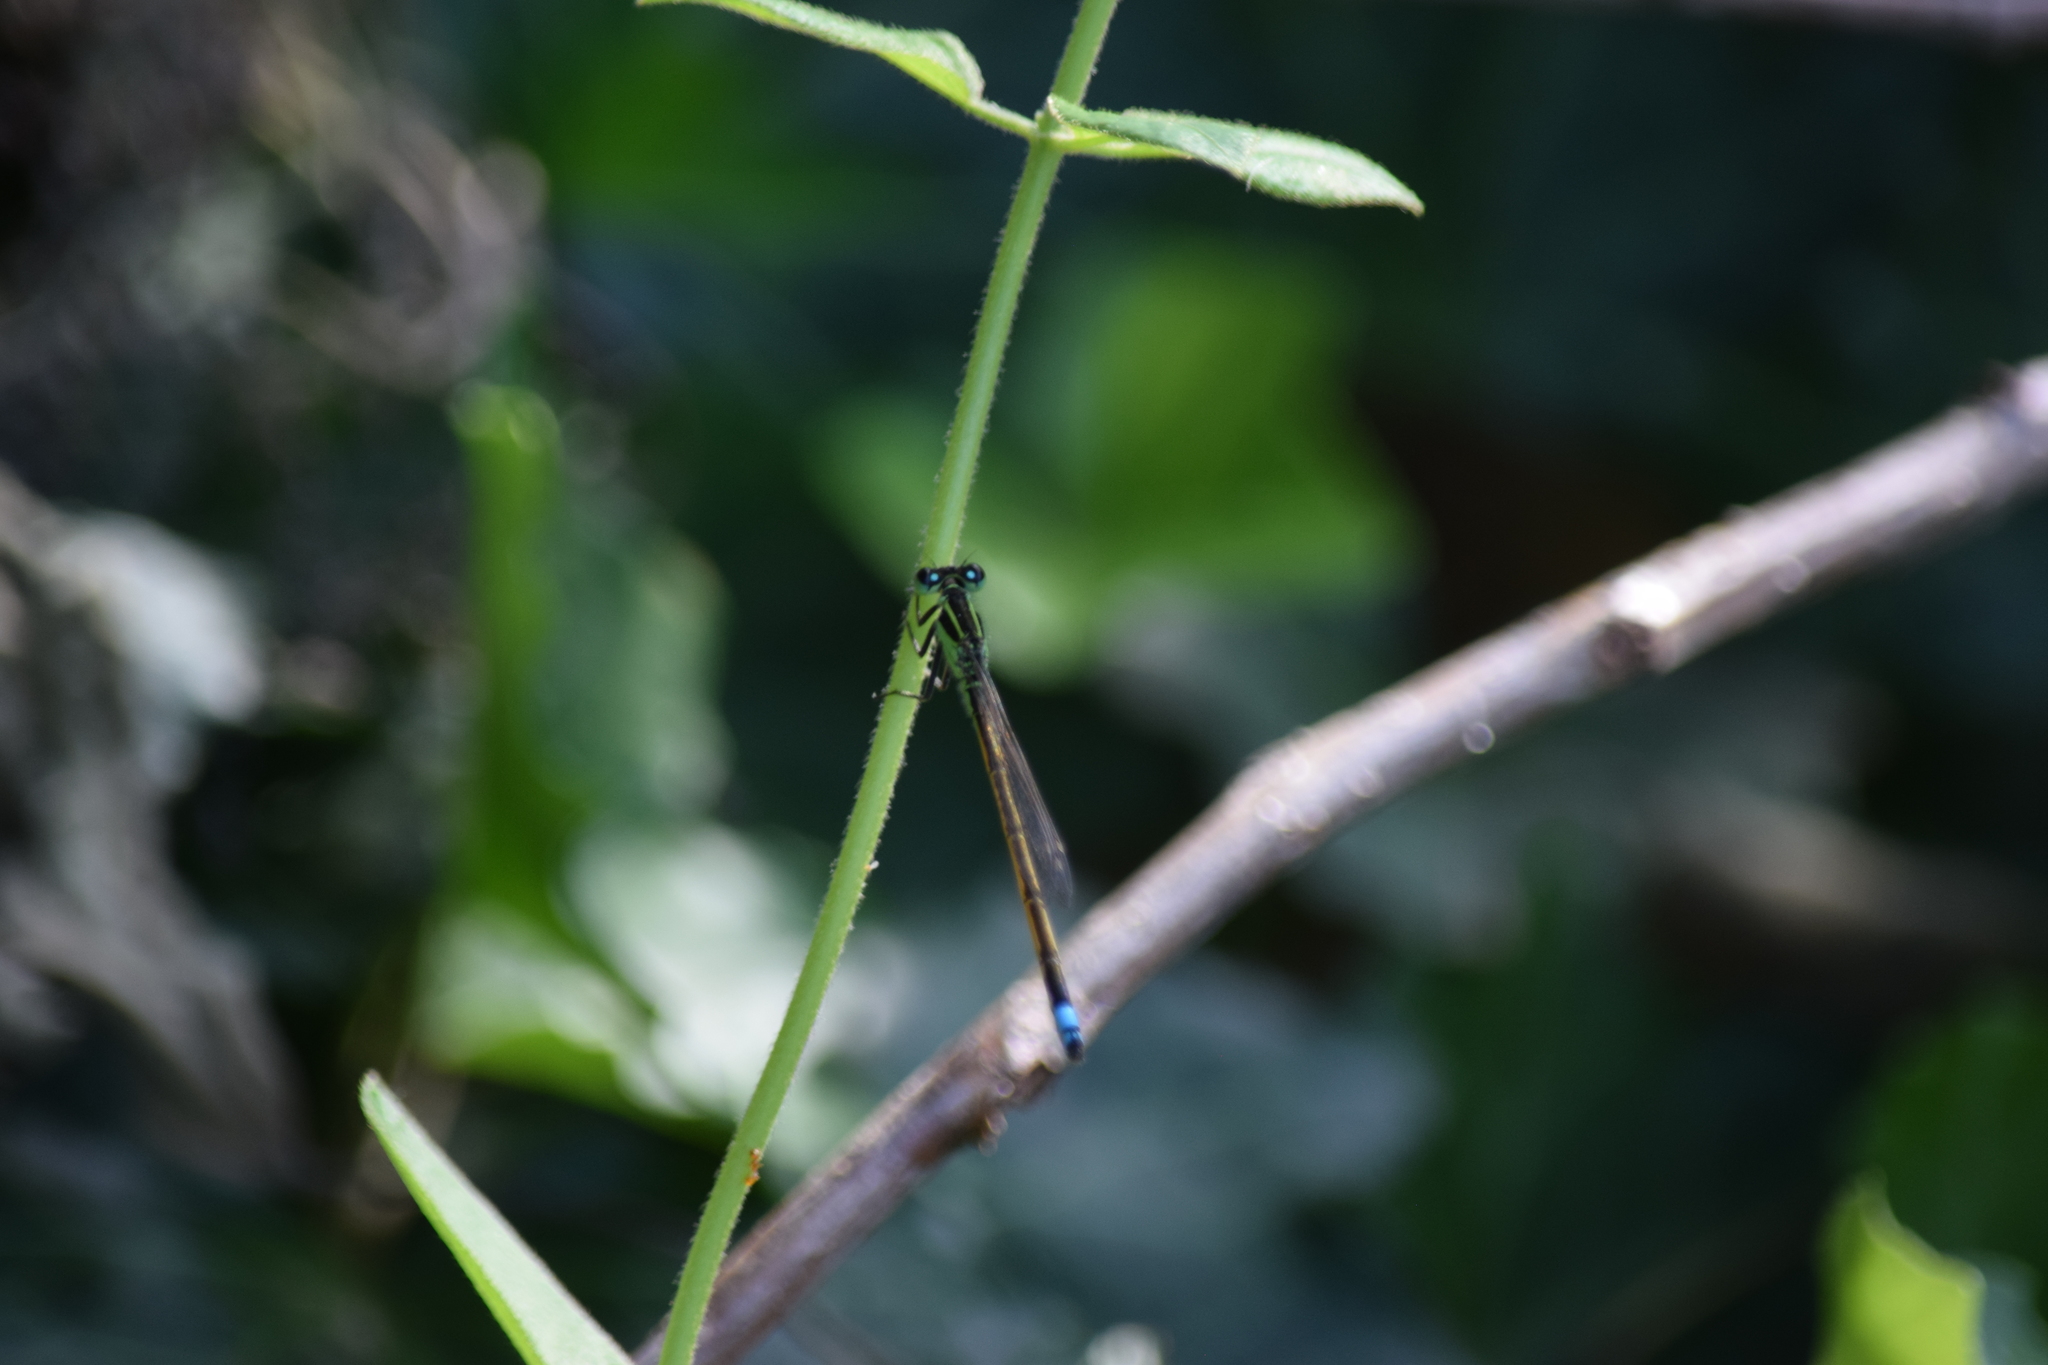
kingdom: Animalia
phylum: Arthropoda
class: Insecta
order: Odonata
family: Coenagrionidae
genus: Ischnura
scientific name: Ischnura ramburii
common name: Rambur's forktail
